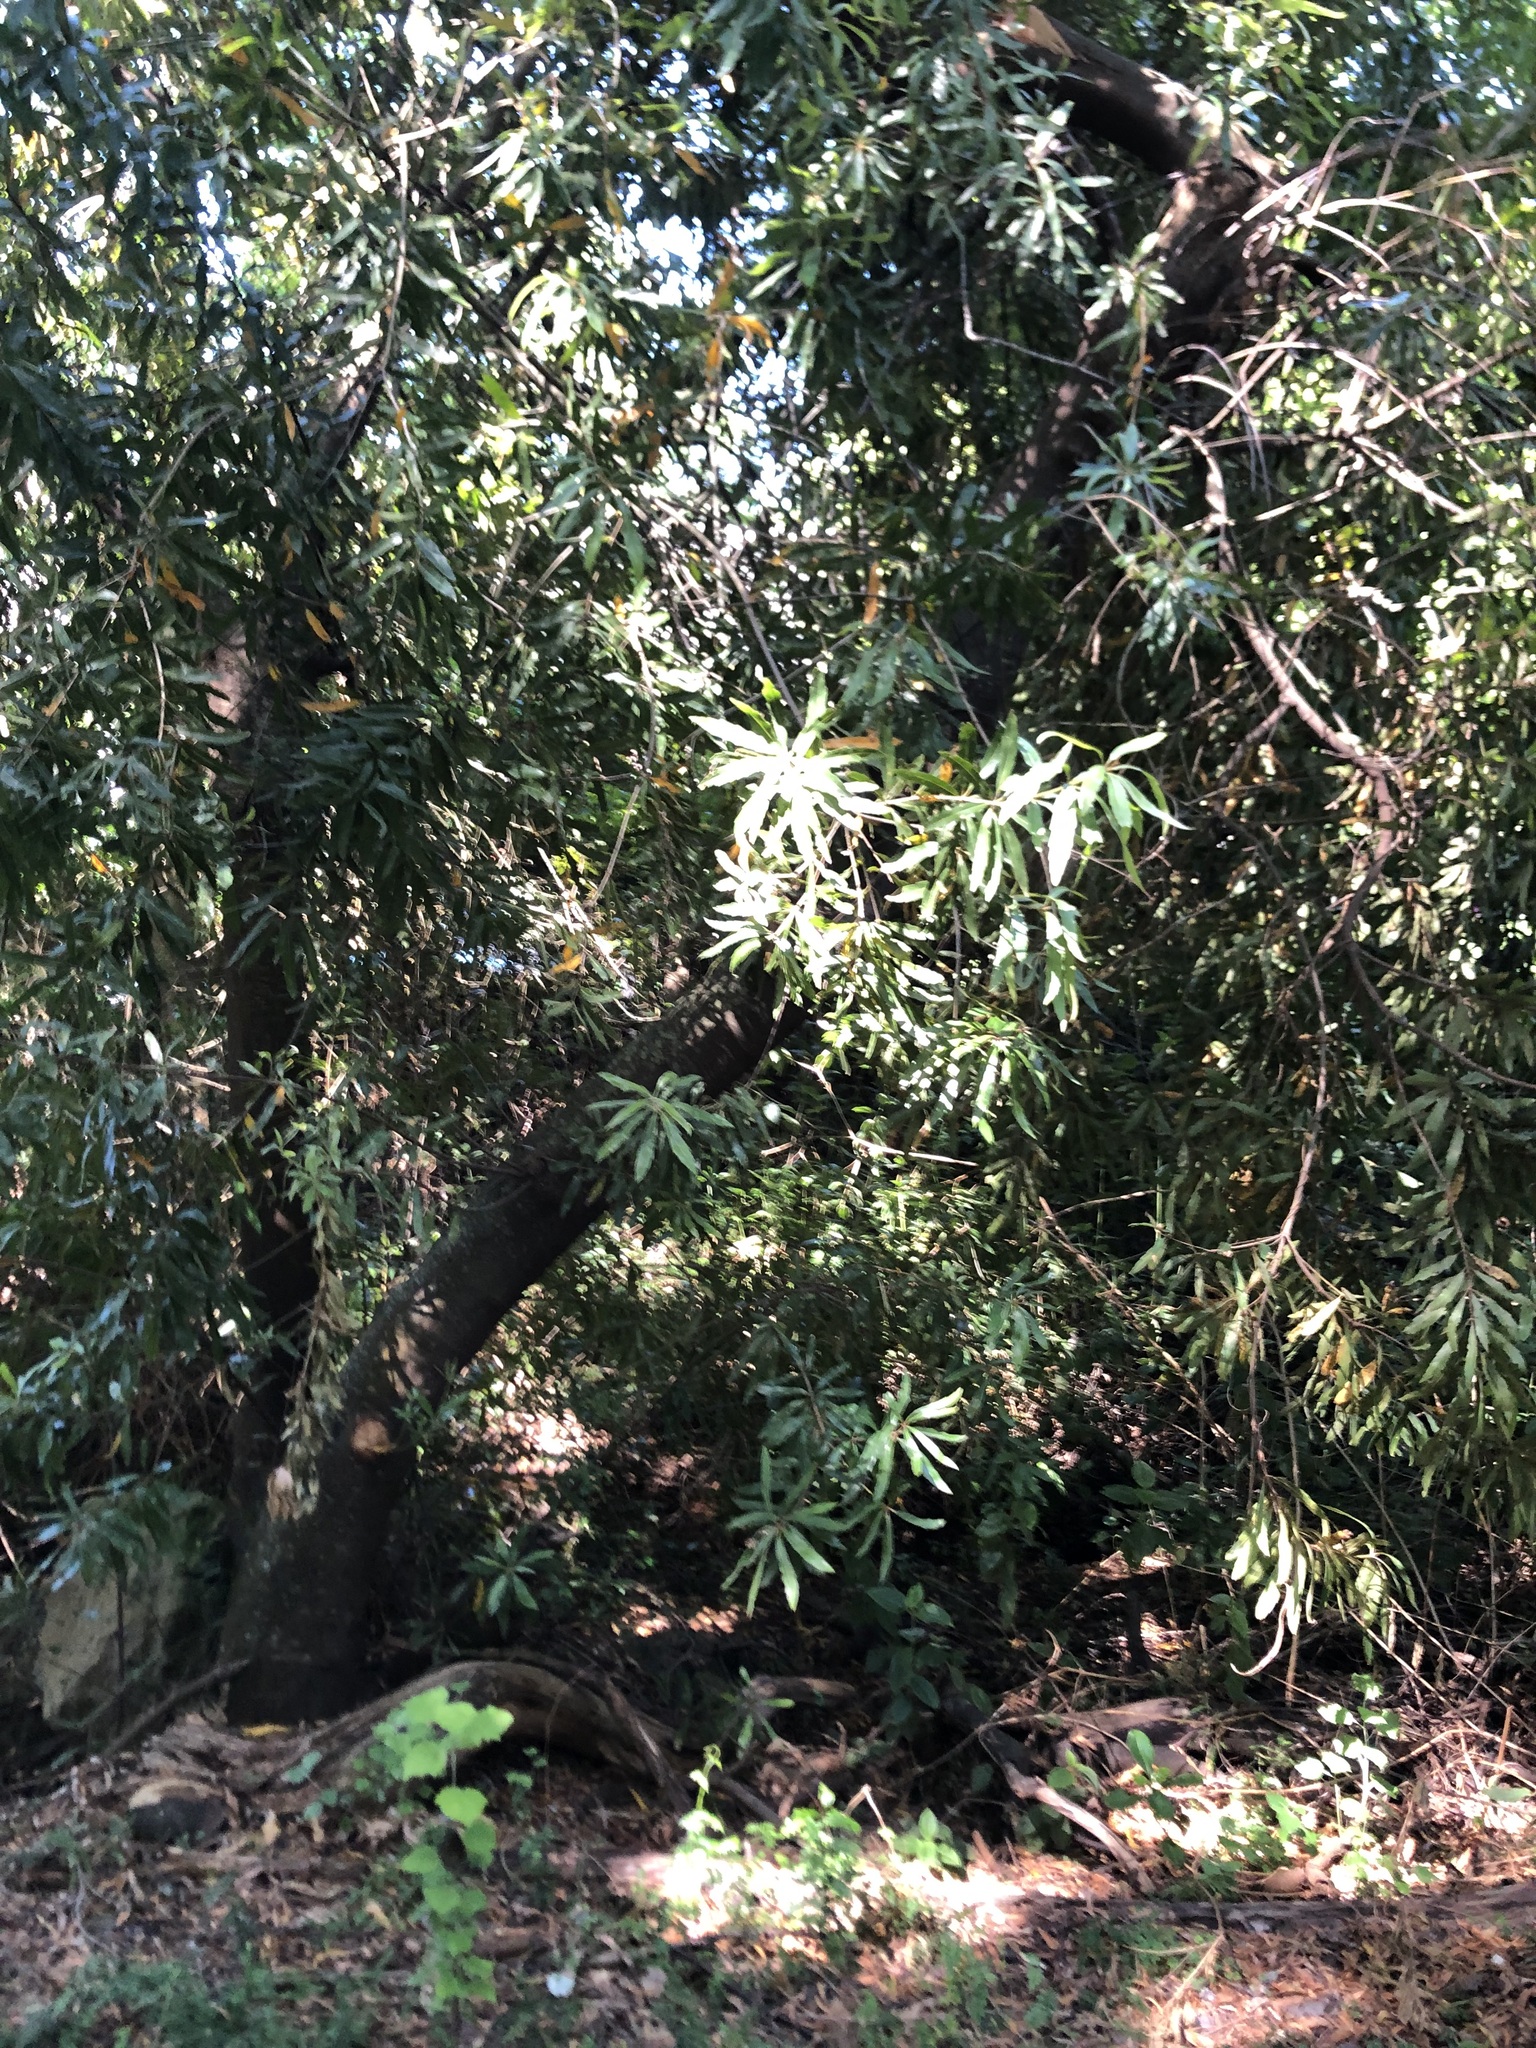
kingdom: Plantae
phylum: Tracheophyta
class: Magnoliopsida
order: Proteales
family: Proteaceae
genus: Brabejum
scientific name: Brabejum stellatifolium
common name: Wild almond
